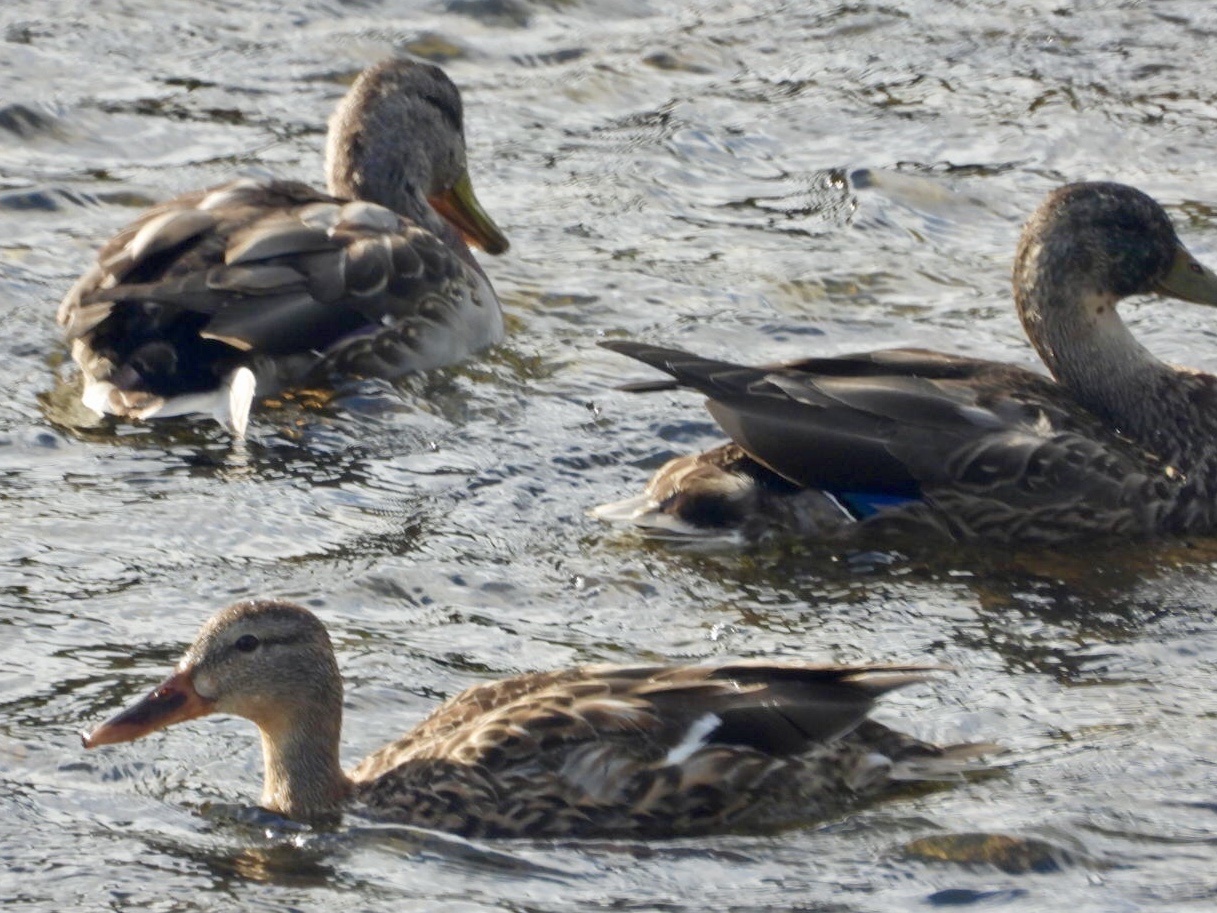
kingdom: Animalia
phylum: Chordata
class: Aves
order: Anseriformes
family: Anatidae
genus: Anas
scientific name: Anas platyrhynchos
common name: Mallard
